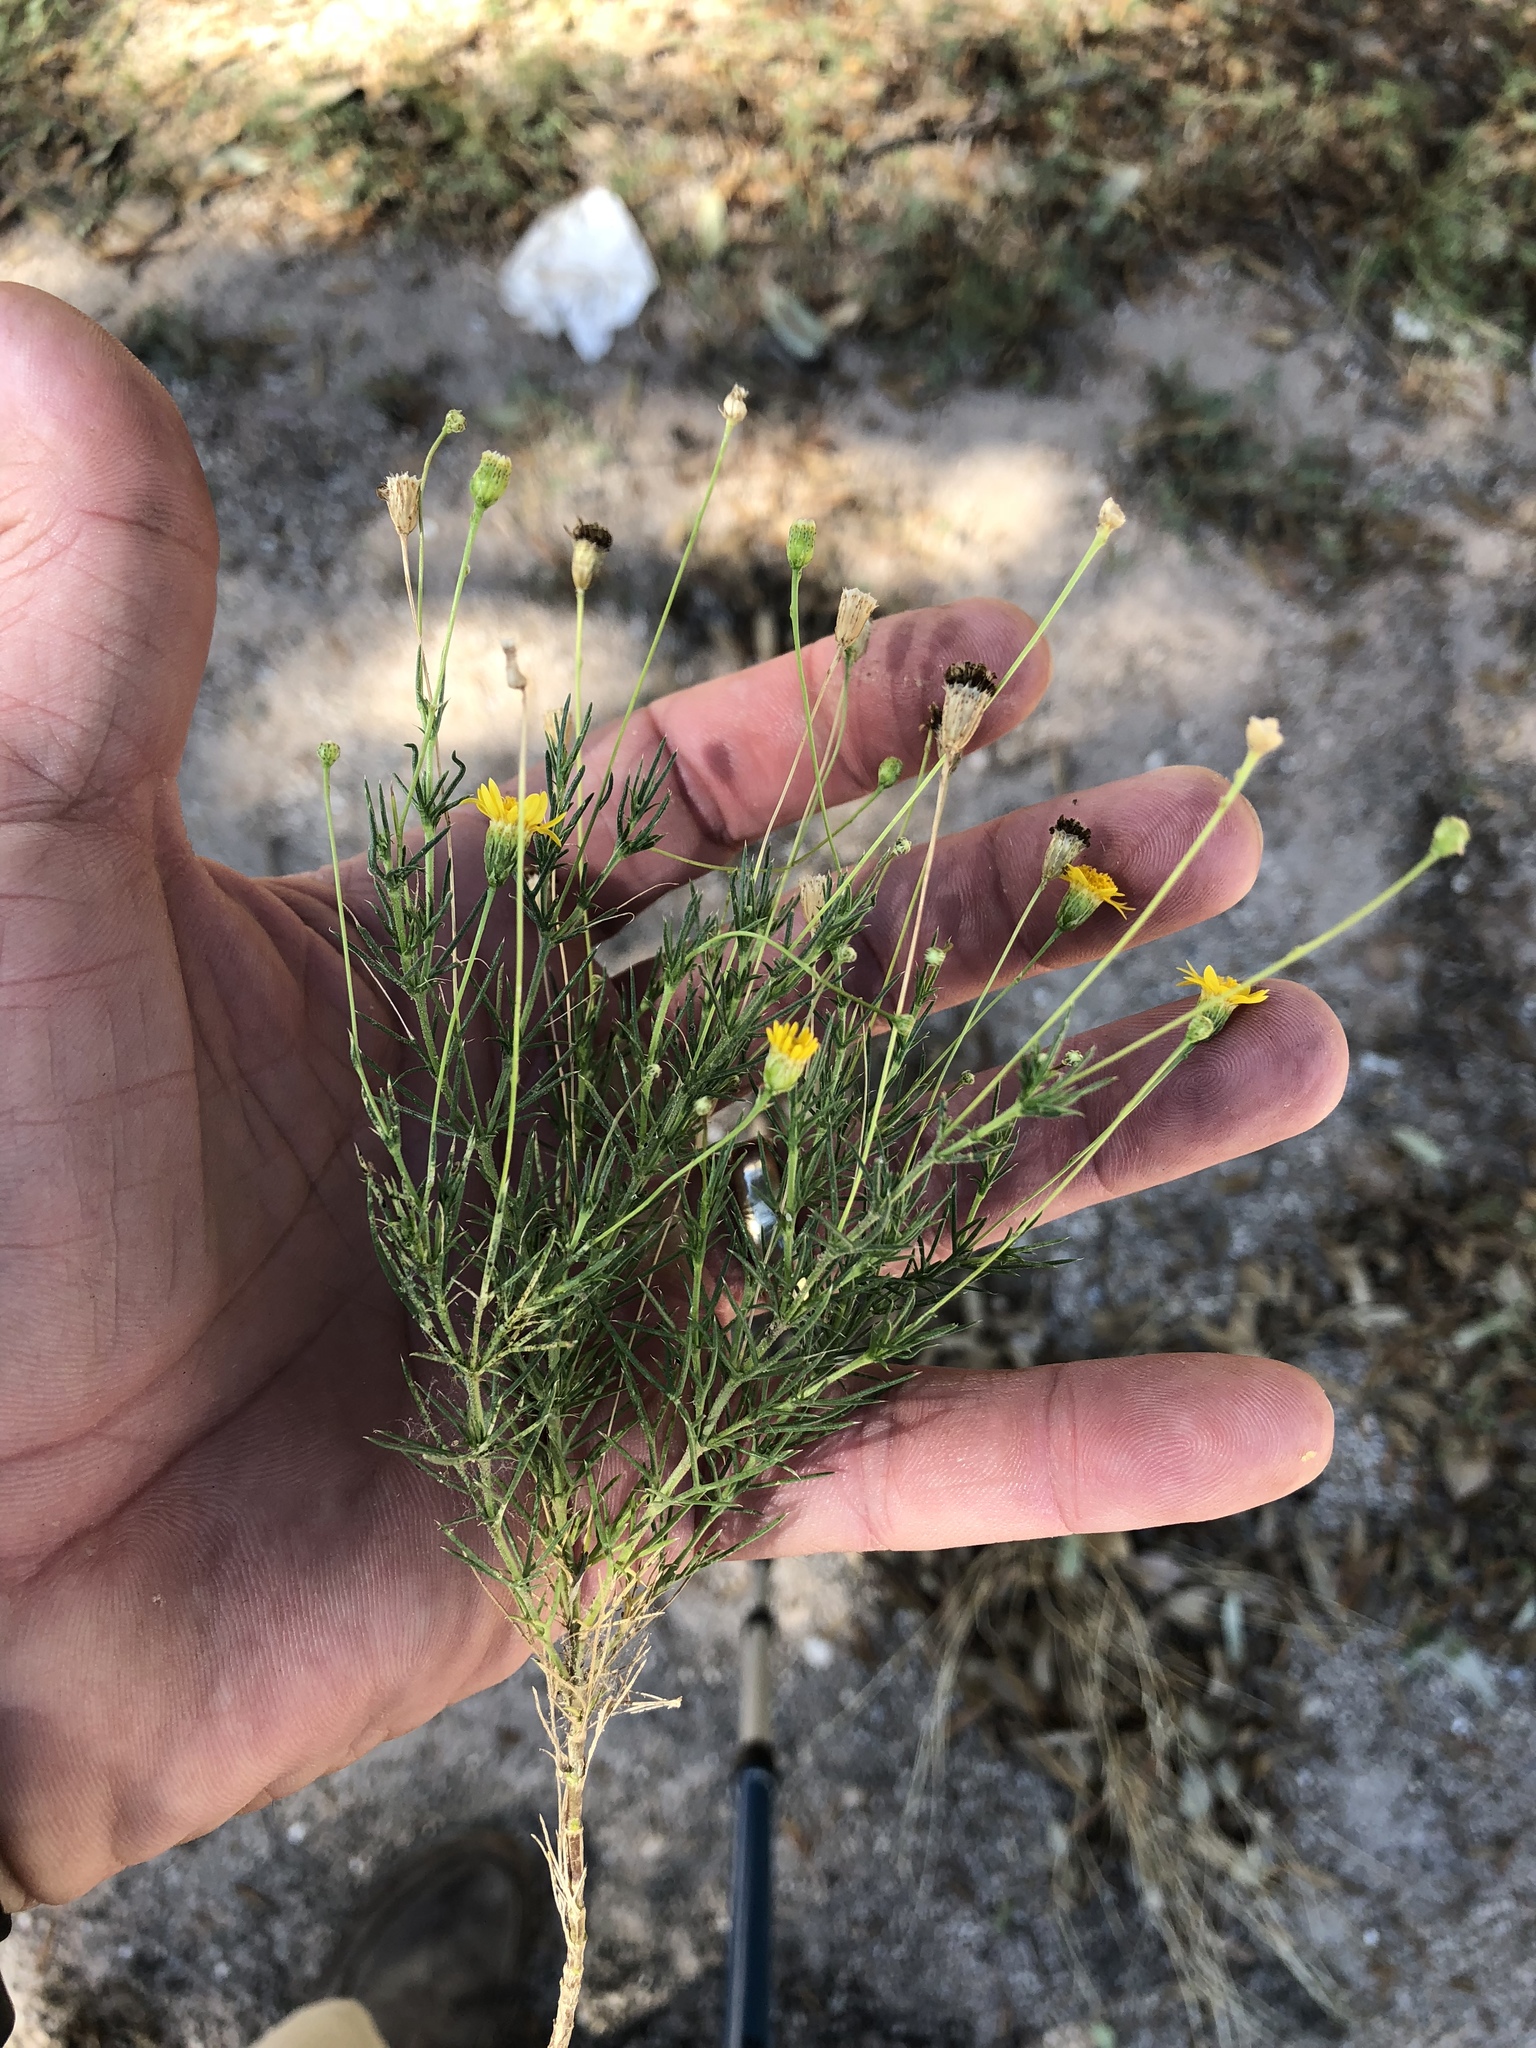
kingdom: Plantae
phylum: Tracheophyta
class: Magnoliopsida
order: Asterales
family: Asteraceae
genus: Thymophylla
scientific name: Thymophylla pentachaeta
